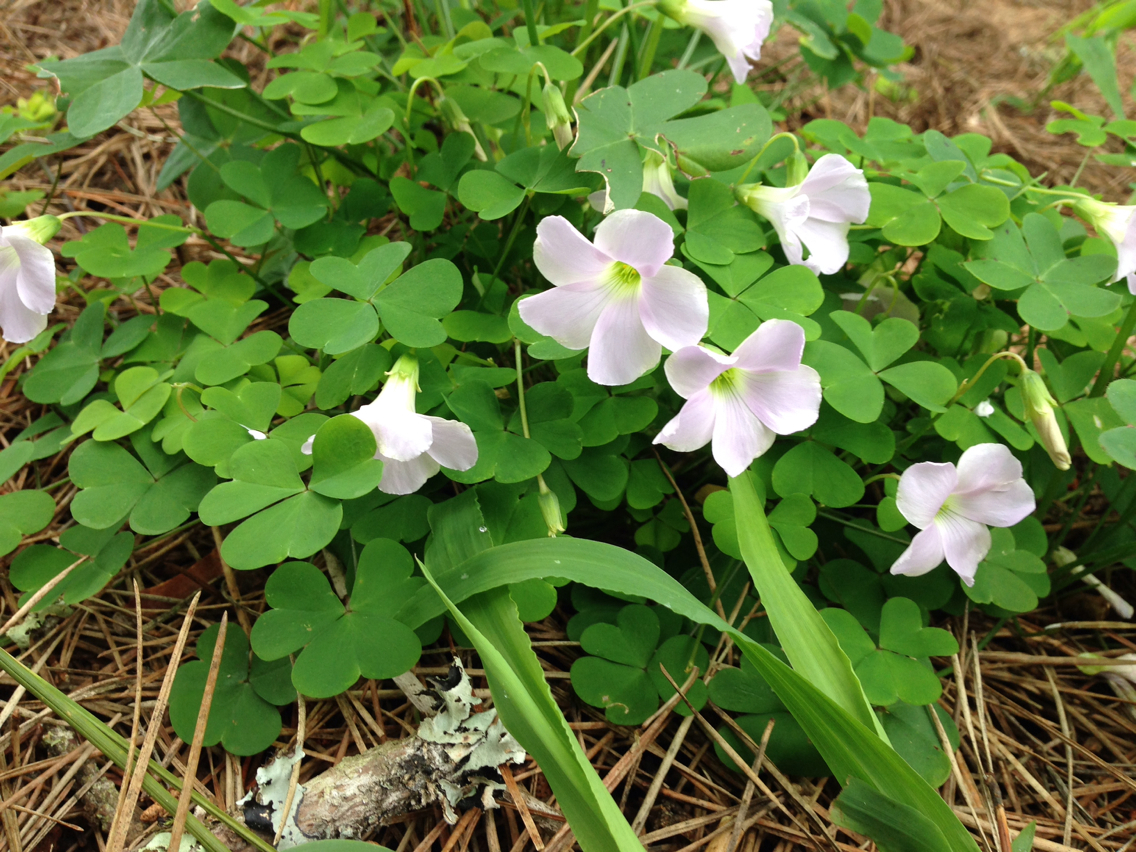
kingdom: Plantae
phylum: Tracheophyta
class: Magnoliopsida
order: Oxalidales
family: Oxalidaceae
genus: Oxalis
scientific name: Oxalis incarnata
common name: Pale pink-sorrel
